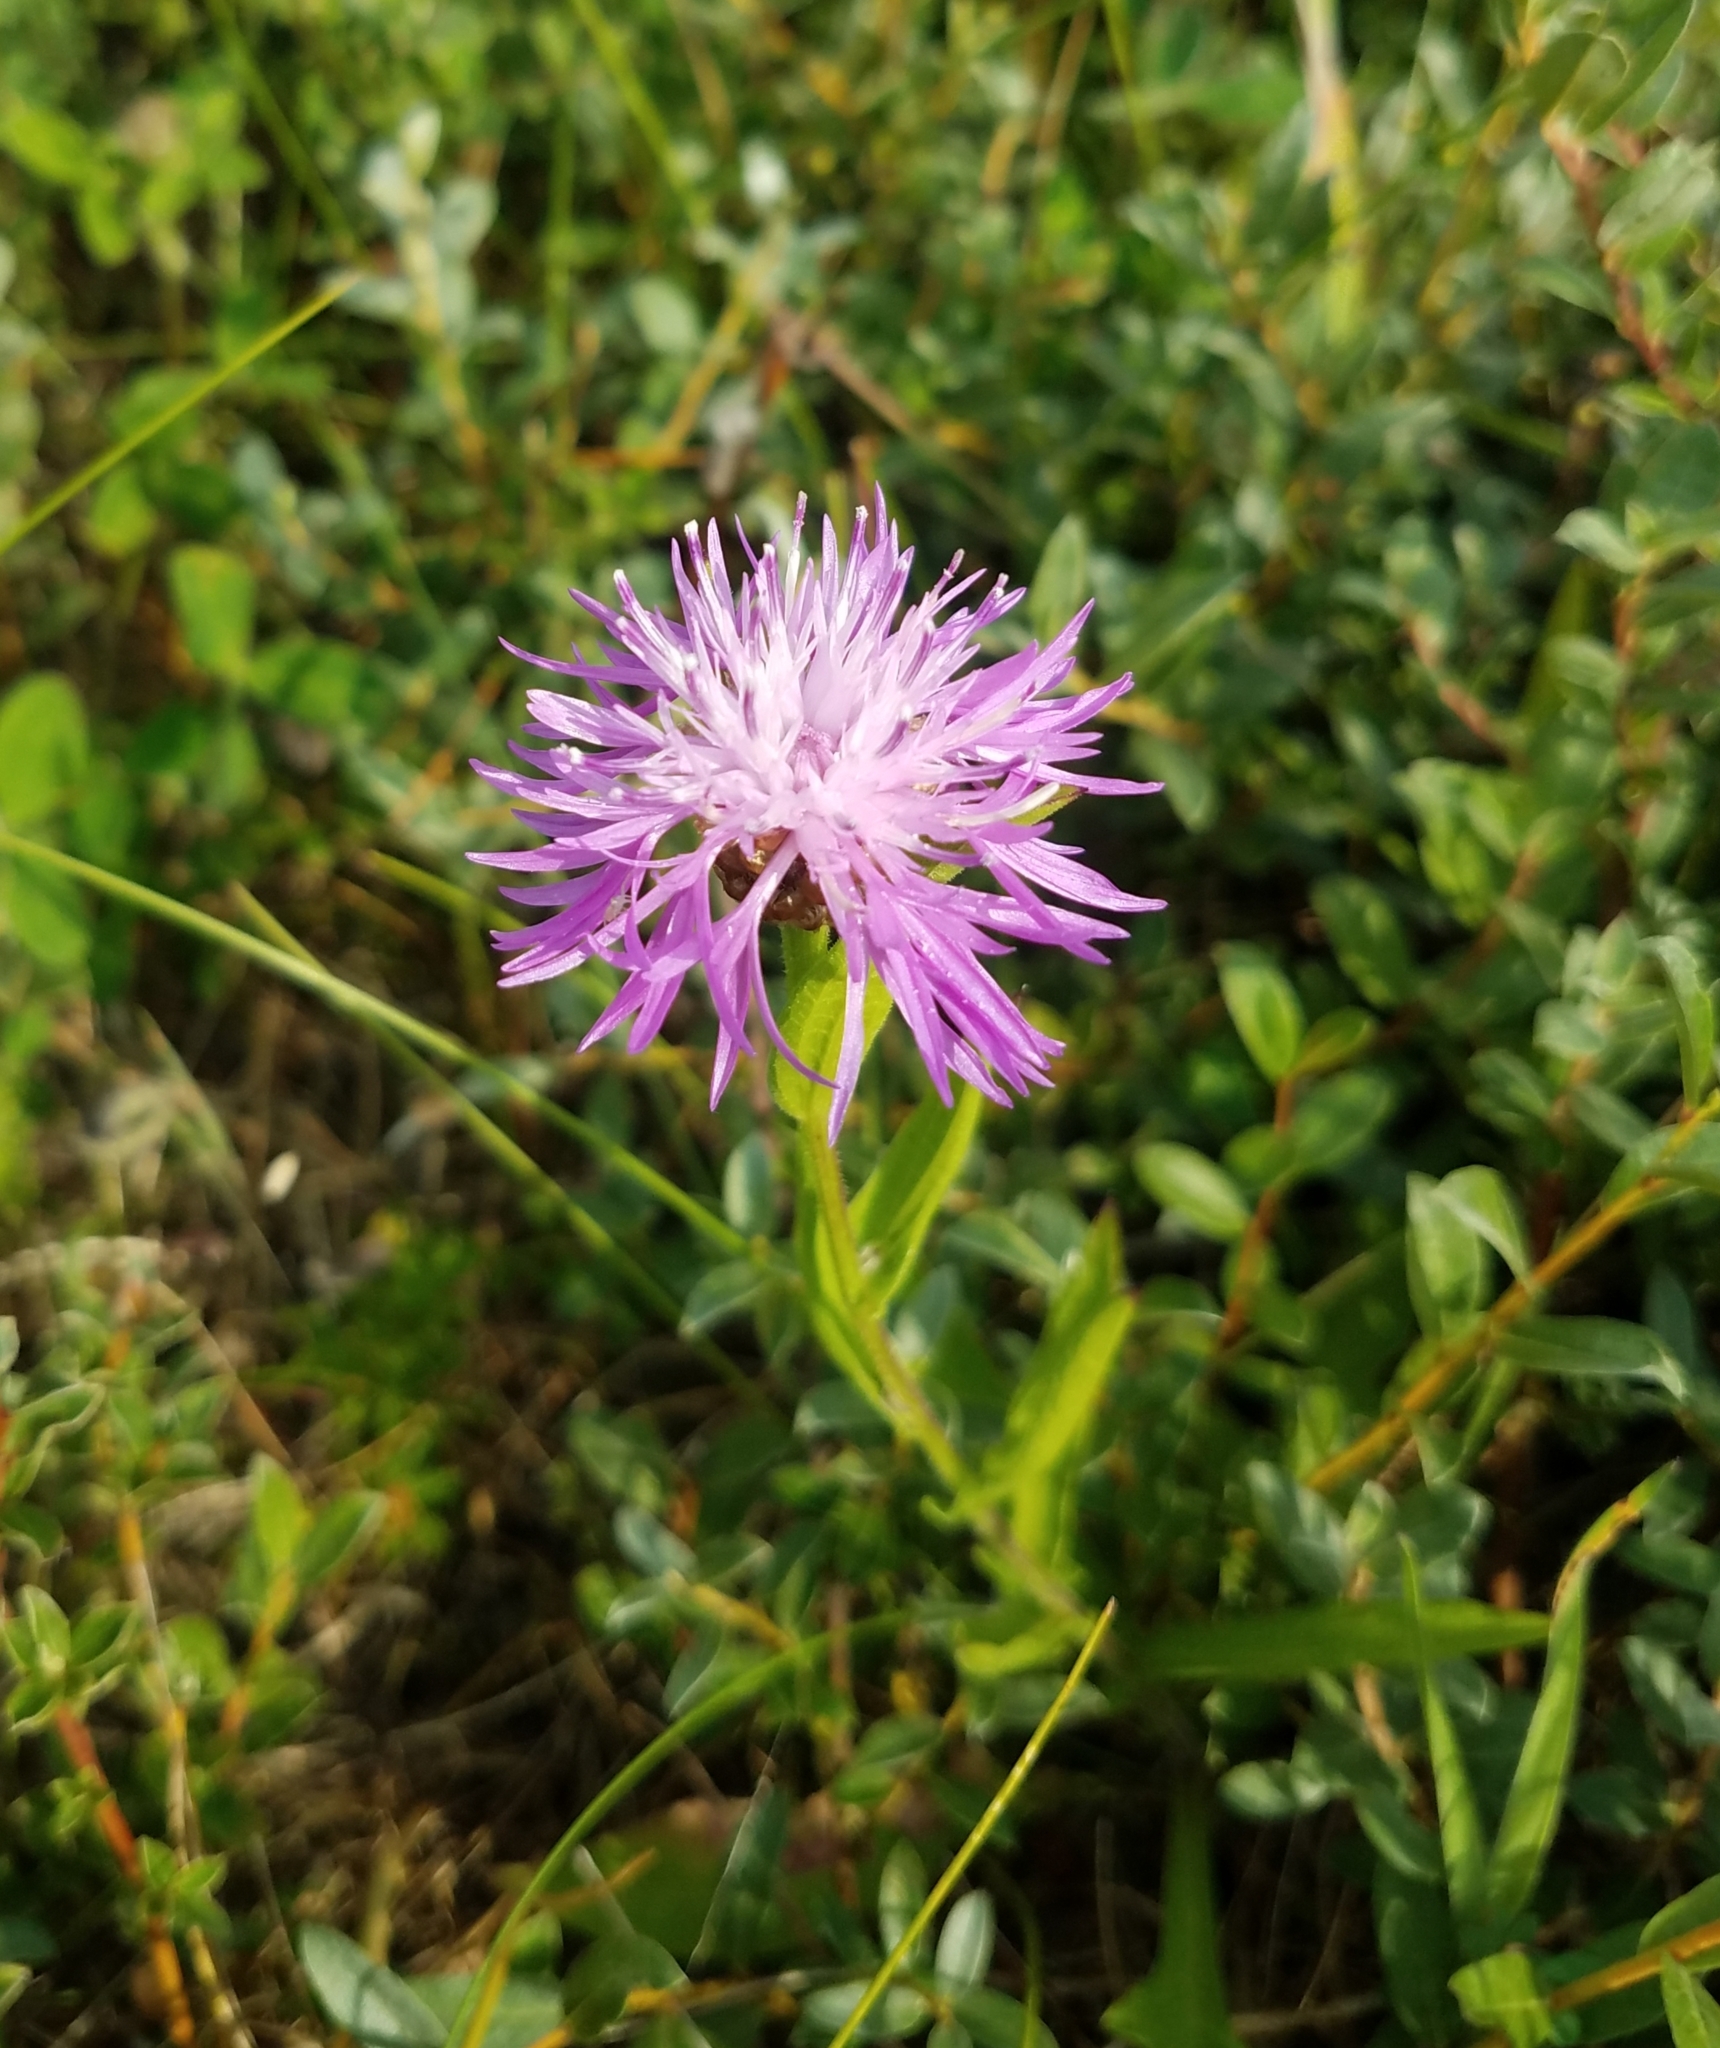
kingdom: Plantae
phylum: Tracheophyta
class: Magnoliopsida
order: Asterales
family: Asteraceae
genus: Centaurea
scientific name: Centaurea jacea
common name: Brown knapweed
